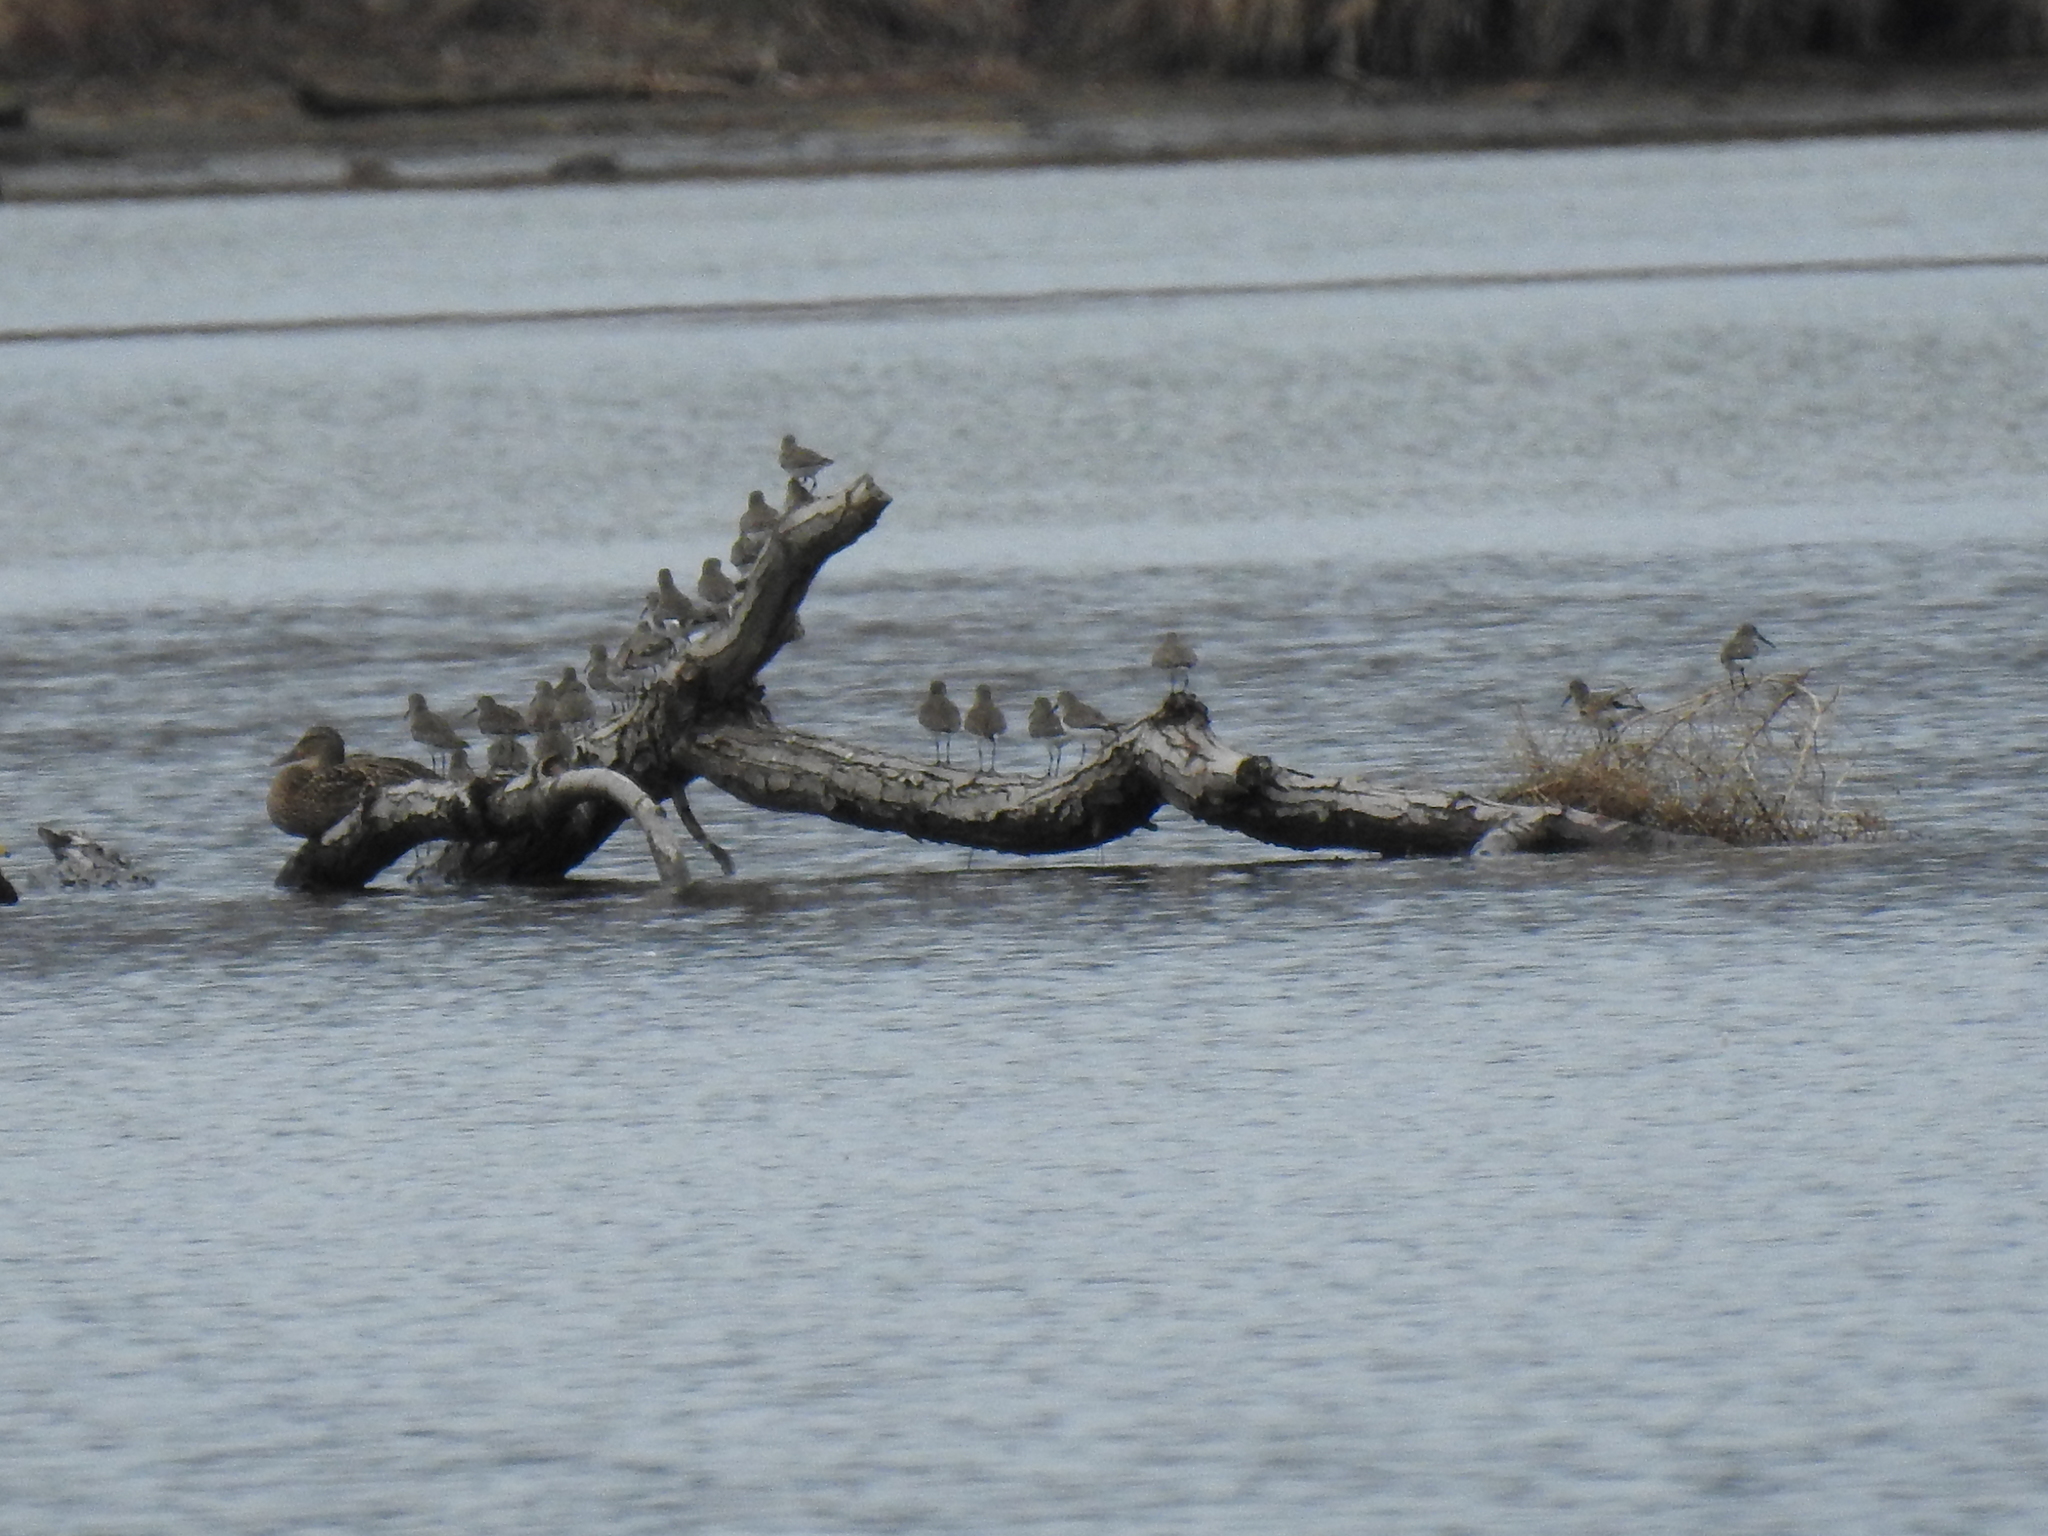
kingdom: Animalia
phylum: Chordata
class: Aves
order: Charadriiformes
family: Scolopacidae
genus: Calidris
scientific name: Calidris alpina
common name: Dunlin
